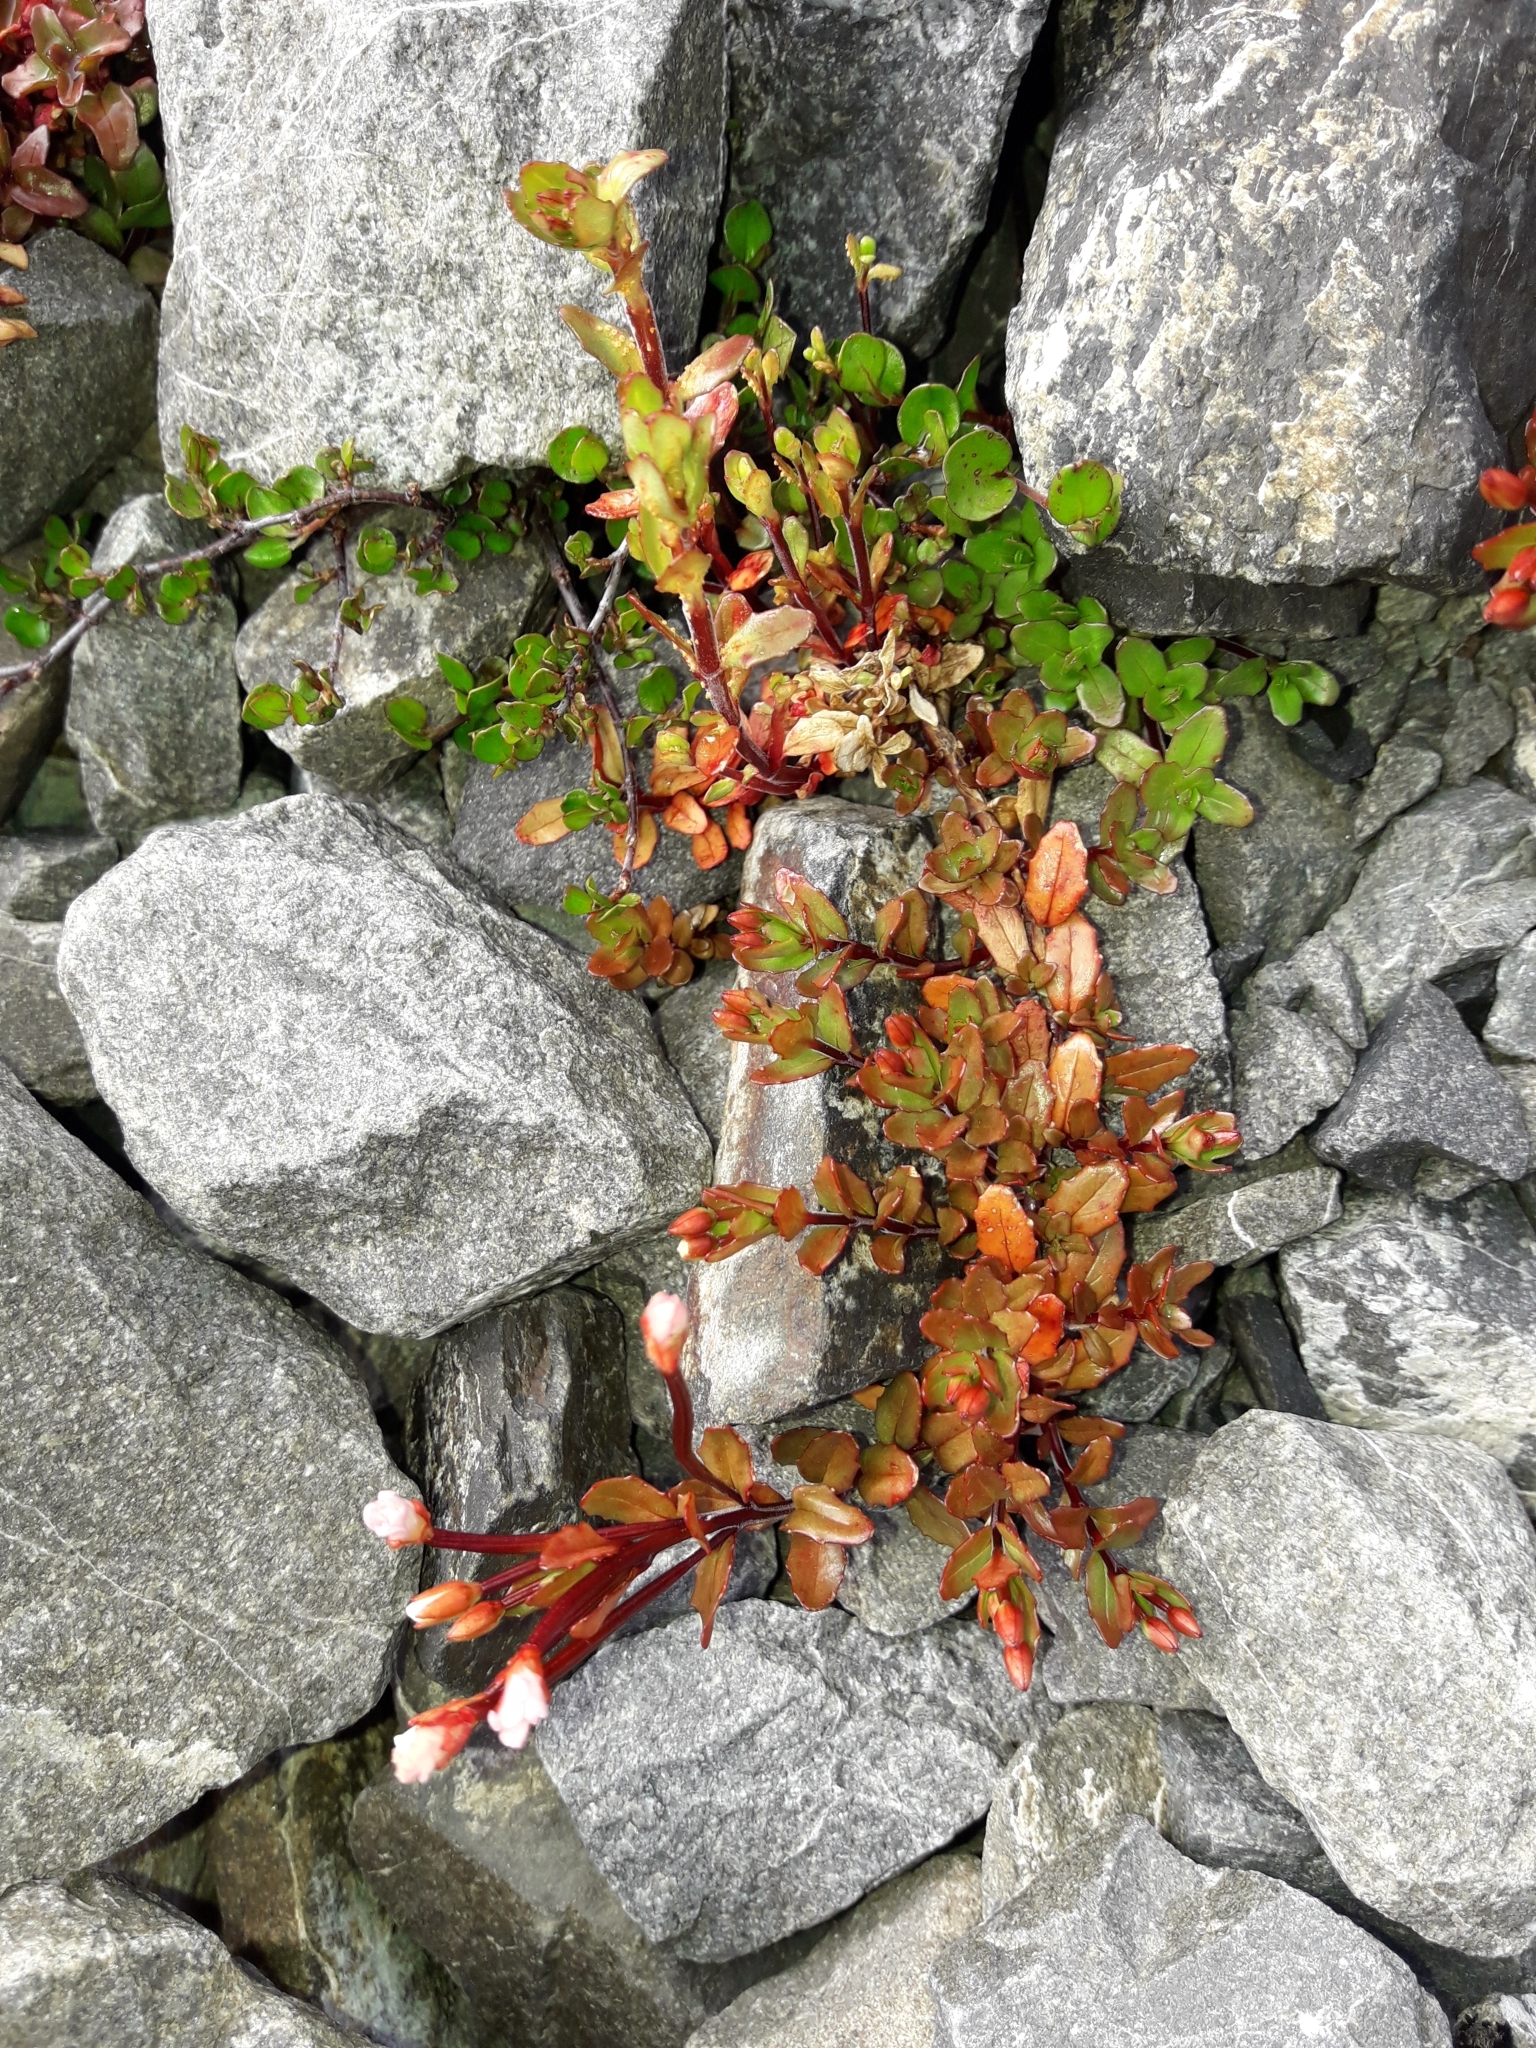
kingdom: Plantae
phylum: Tracheophyta
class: Magnoliopsida
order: Myrtales
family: Onagraceae
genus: Epilobium
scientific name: Epilobium glabellum
